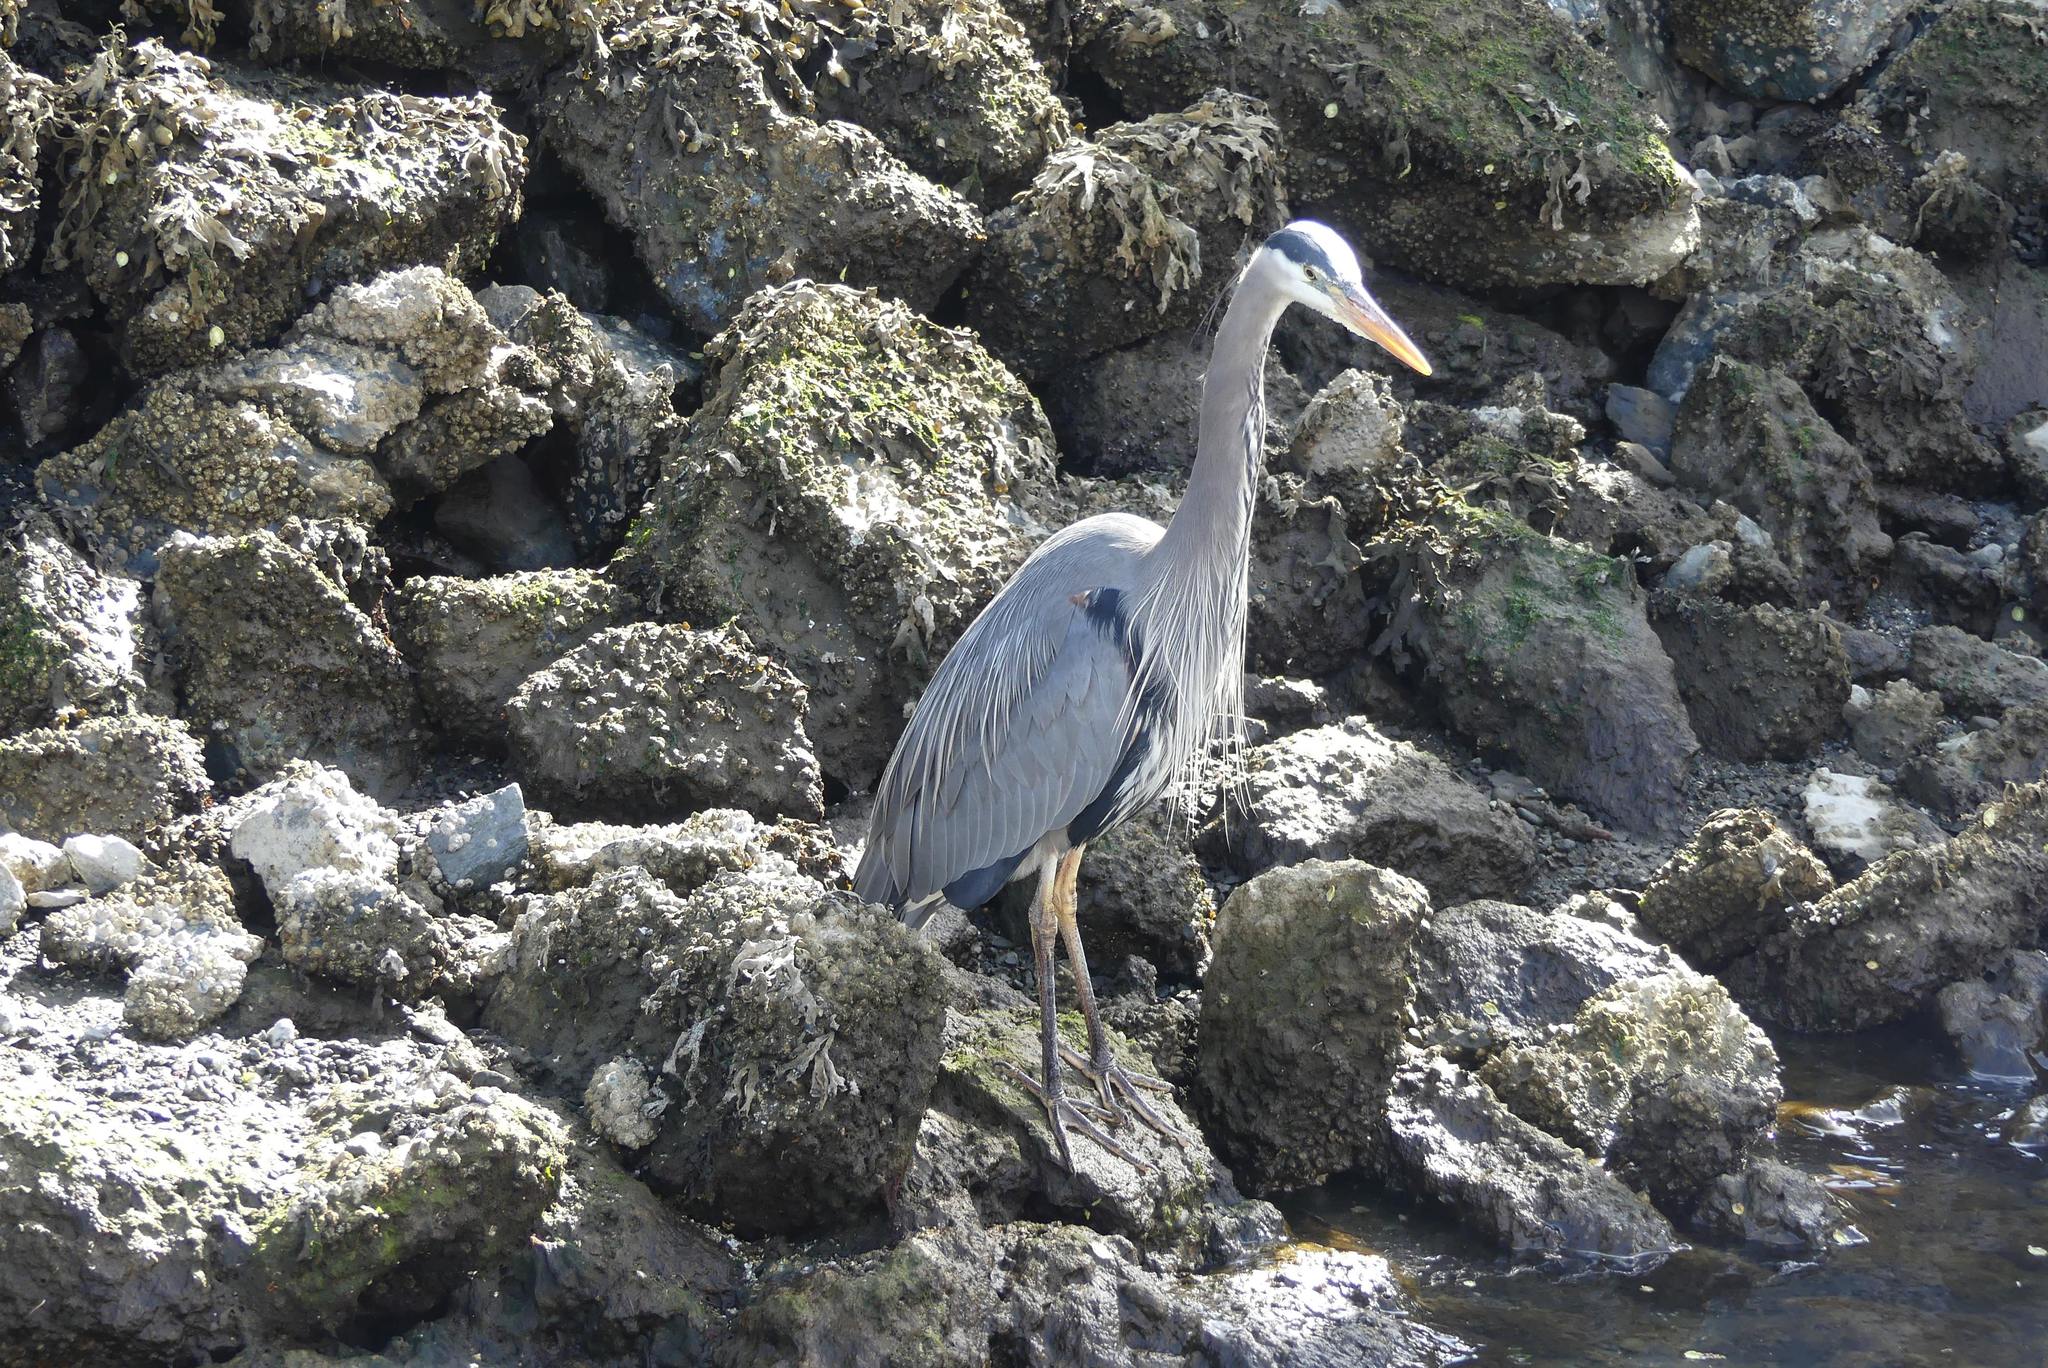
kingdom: Animalia
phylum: Chordata
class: Aves
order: Pelecaniformes
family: Ardeidae
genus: Ardea
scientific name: Ardea herodias
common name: Great blue heron
